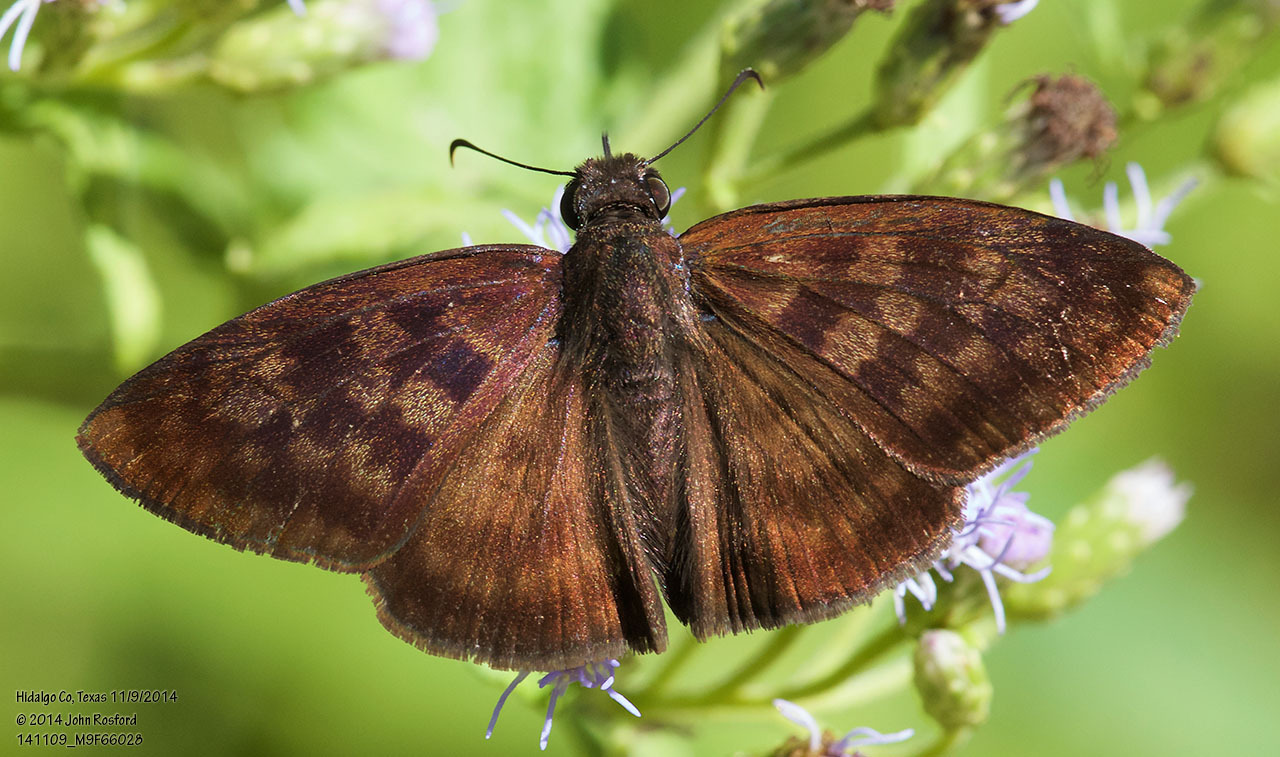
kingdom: Animalia
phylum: Arthropoda
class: Insecta
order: Lepidoptera
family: Hesperiidae
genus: Anastrus
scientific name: Anastrus Echelatus sempiternus
